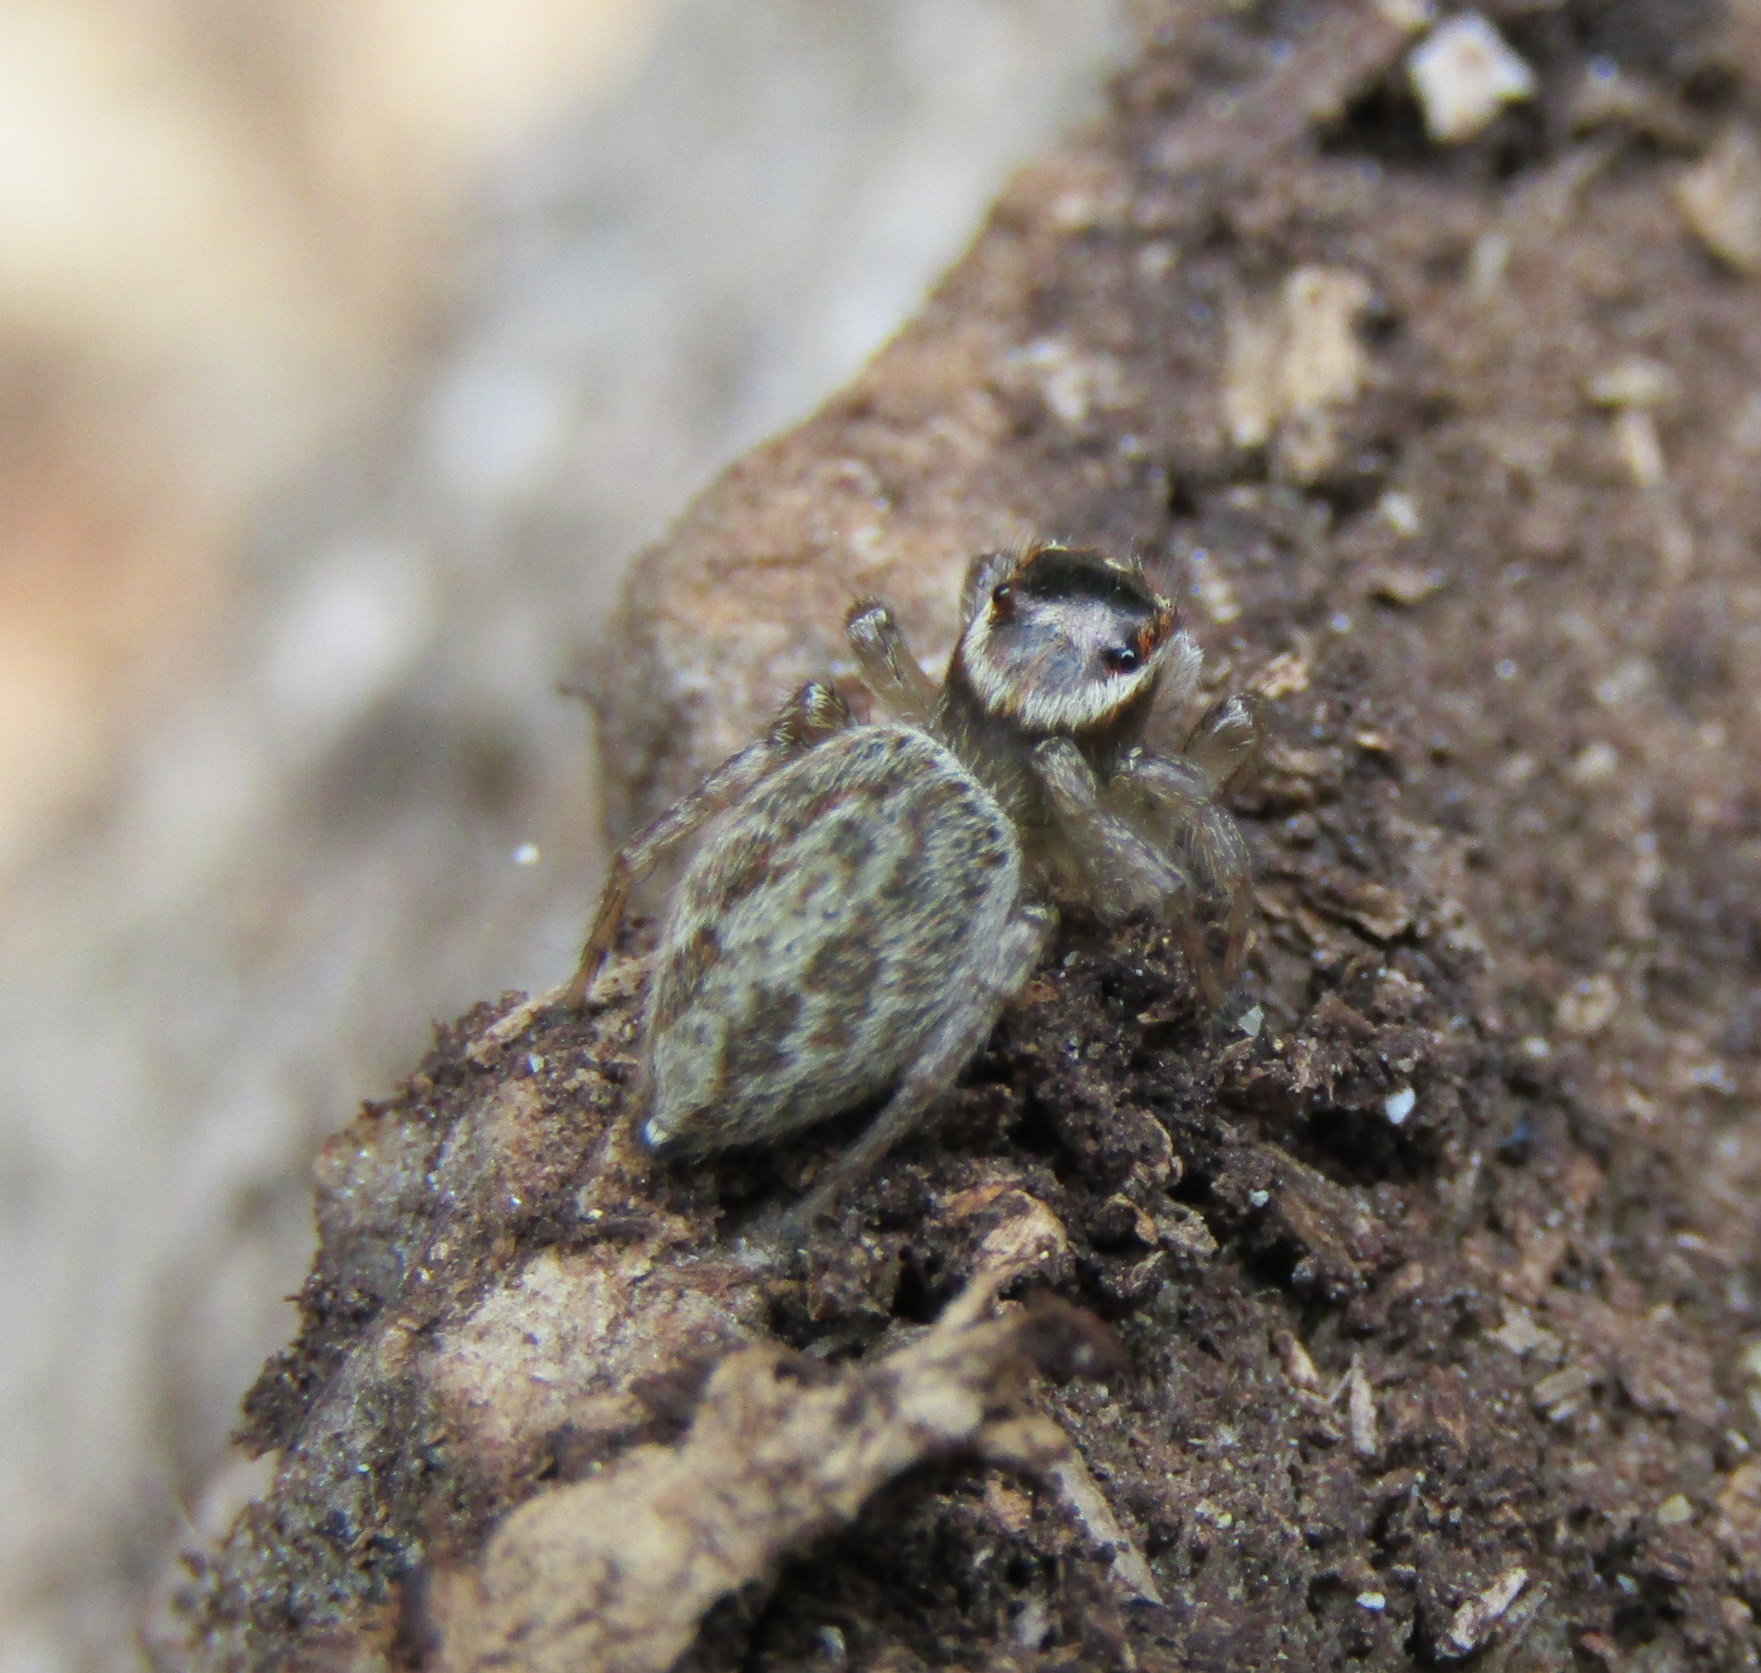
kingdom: Animalia
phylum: Arthropoda
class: Arachnida
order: Araneae
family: Salticidae
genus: Maratus
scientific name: Maratus griseus
